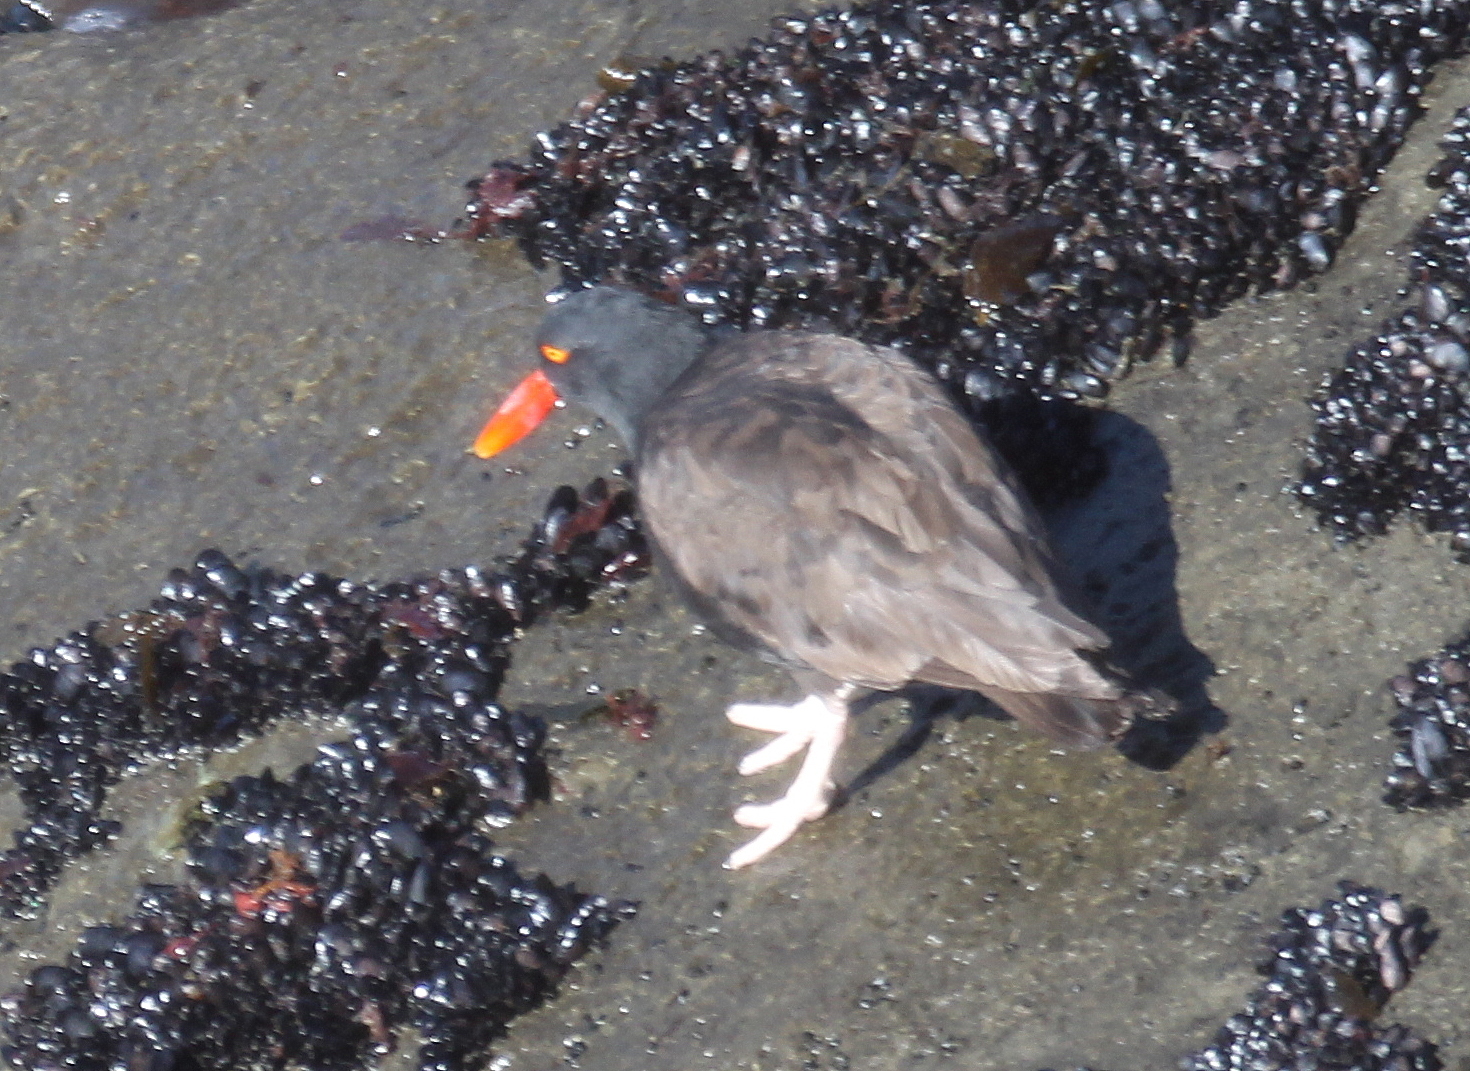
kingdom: Animalia
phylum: Chordata
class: Aves
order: Charadriiformes
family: Haematopodidae
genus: Haematopus
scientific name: Haematopus ater
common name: Blackish oystercatcher
